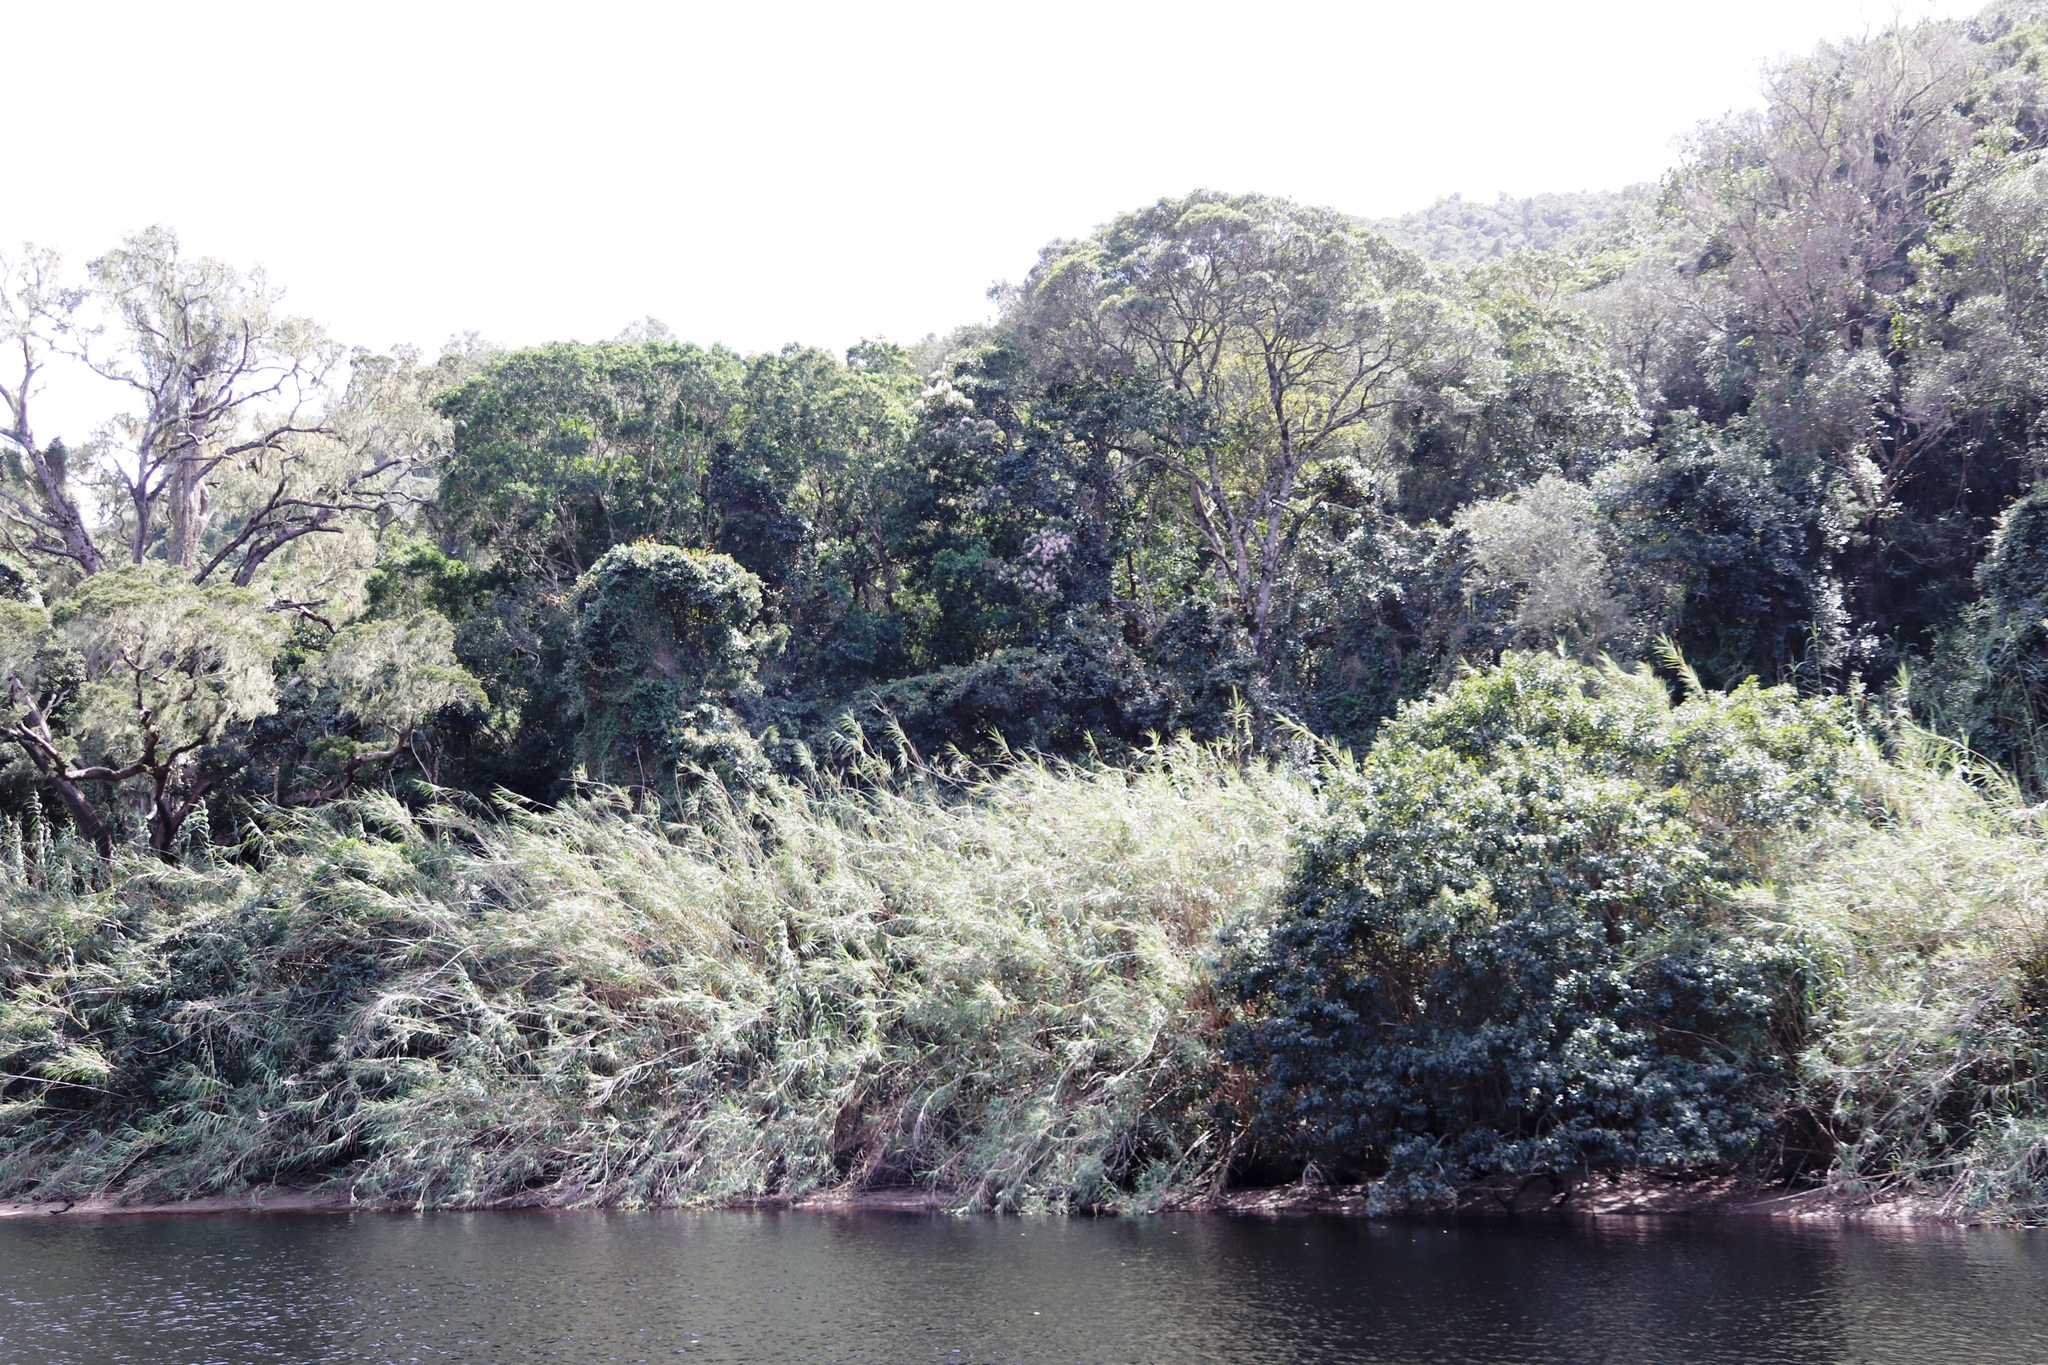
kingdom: Plantae
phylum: Tracheophyta
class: Liliopsida
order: Poales
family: Poaceae
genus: Phragmites
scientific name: Phragmites australis
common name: Common reed
